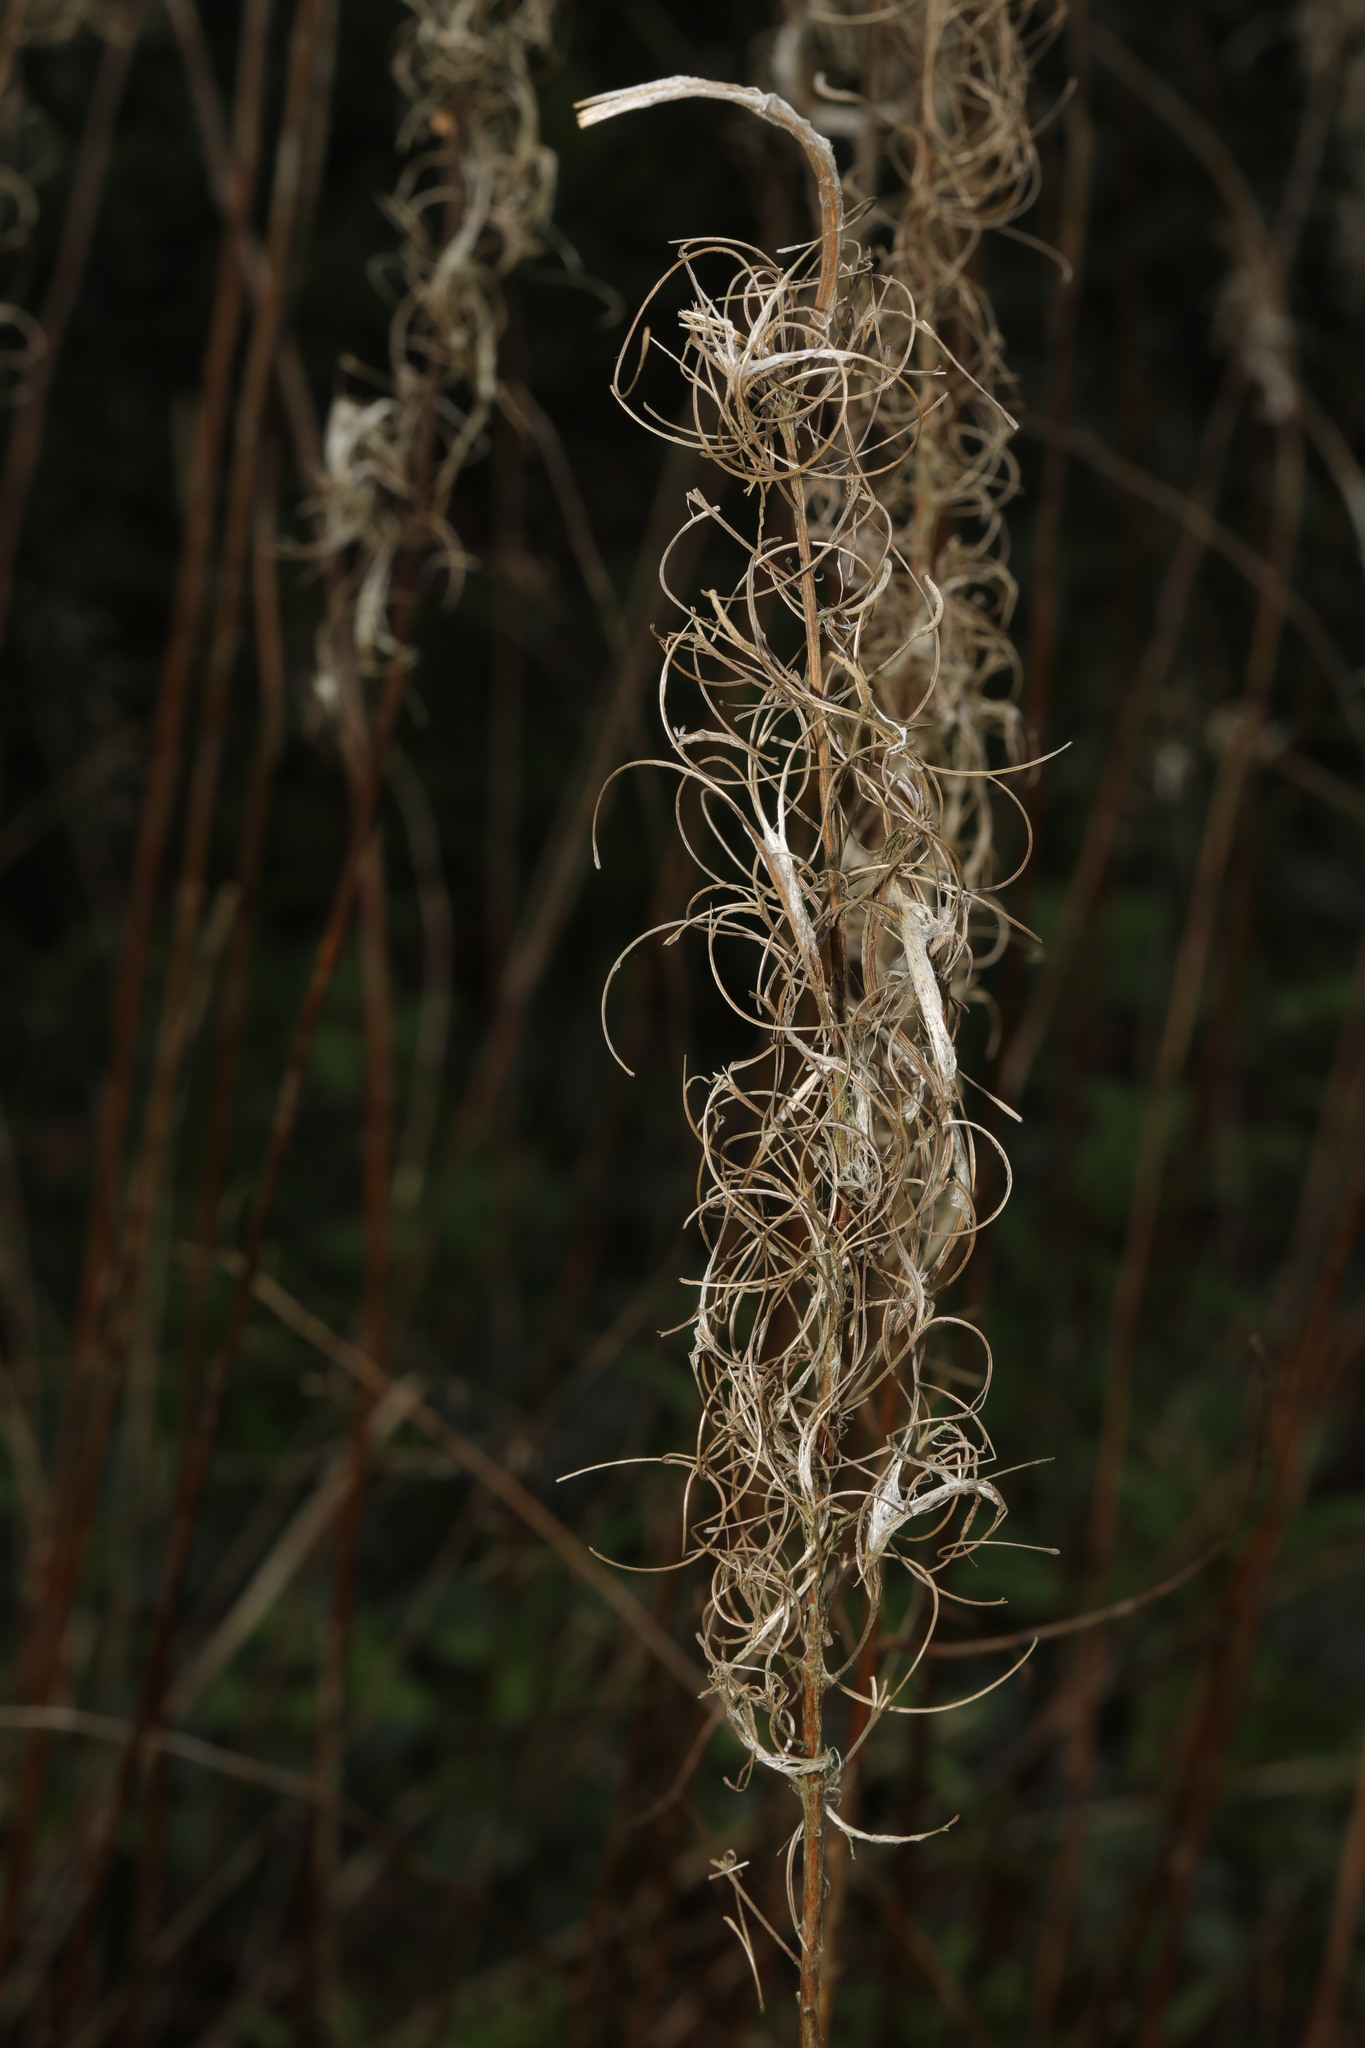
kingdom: Plantae
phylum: Tracheophyta
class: Magnoliopsida
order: Myrtales
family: Onagraceae
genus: Chamaenerion
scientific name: Chamaenerion angustifolium
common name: Fireweed
